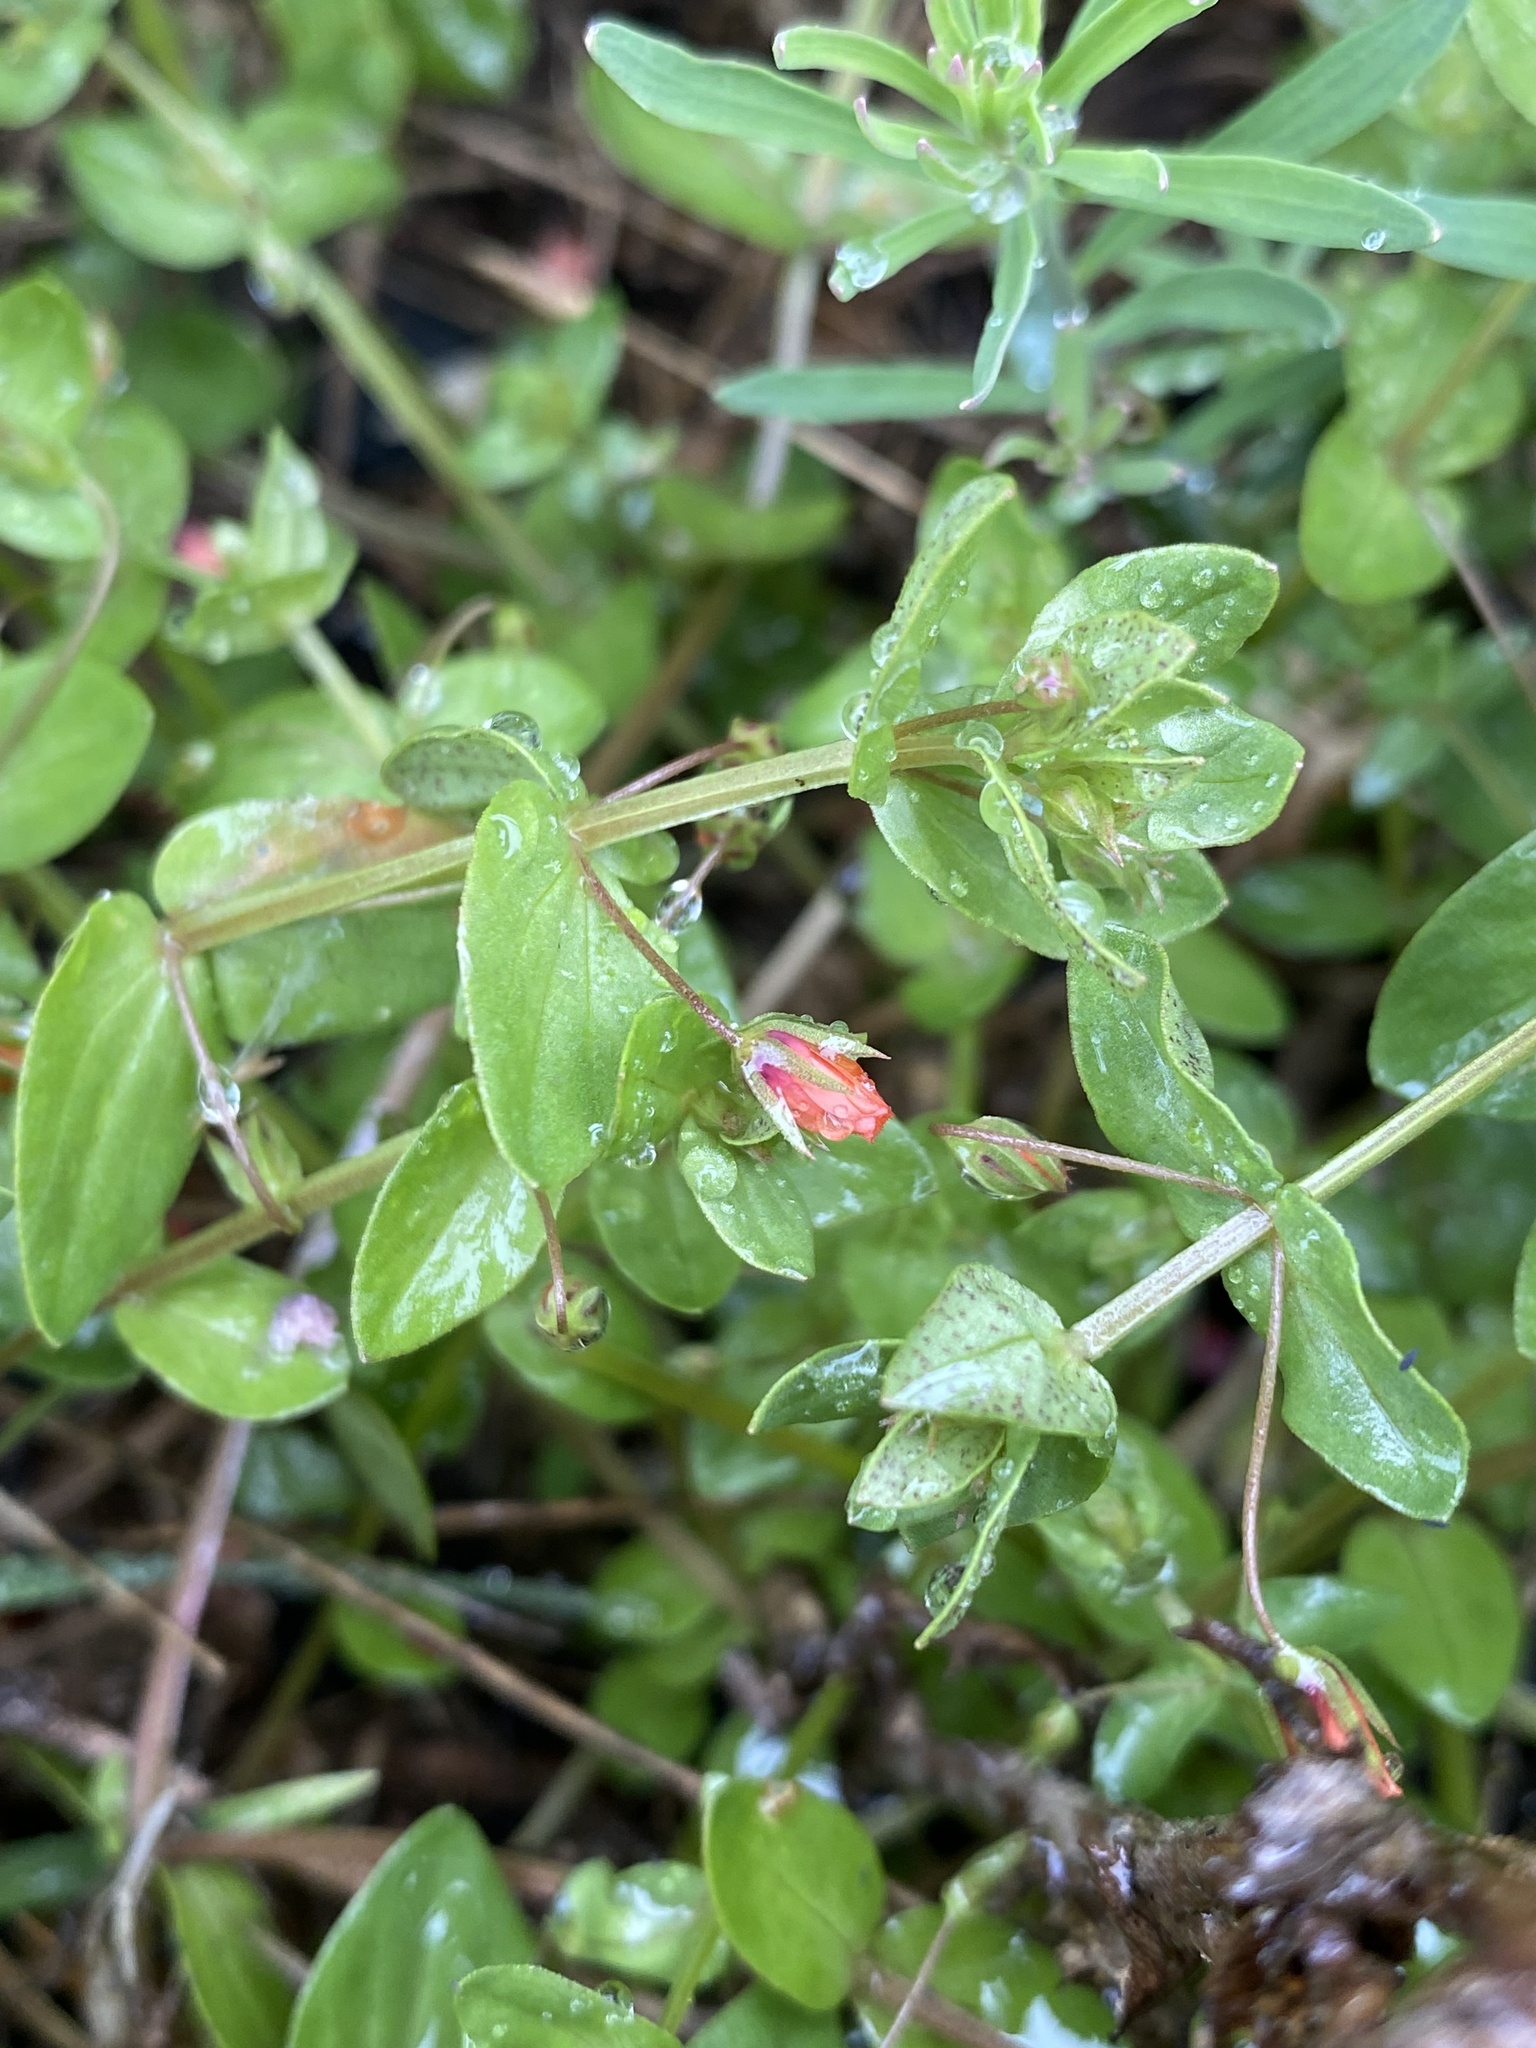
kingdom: Plantae
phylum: Tracheophyta
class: Magnoliopsida
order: Ericales
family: Primulaceae
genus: Lysimachia
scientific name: Lysimachia arvensis
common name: Scarlet pimpernel
